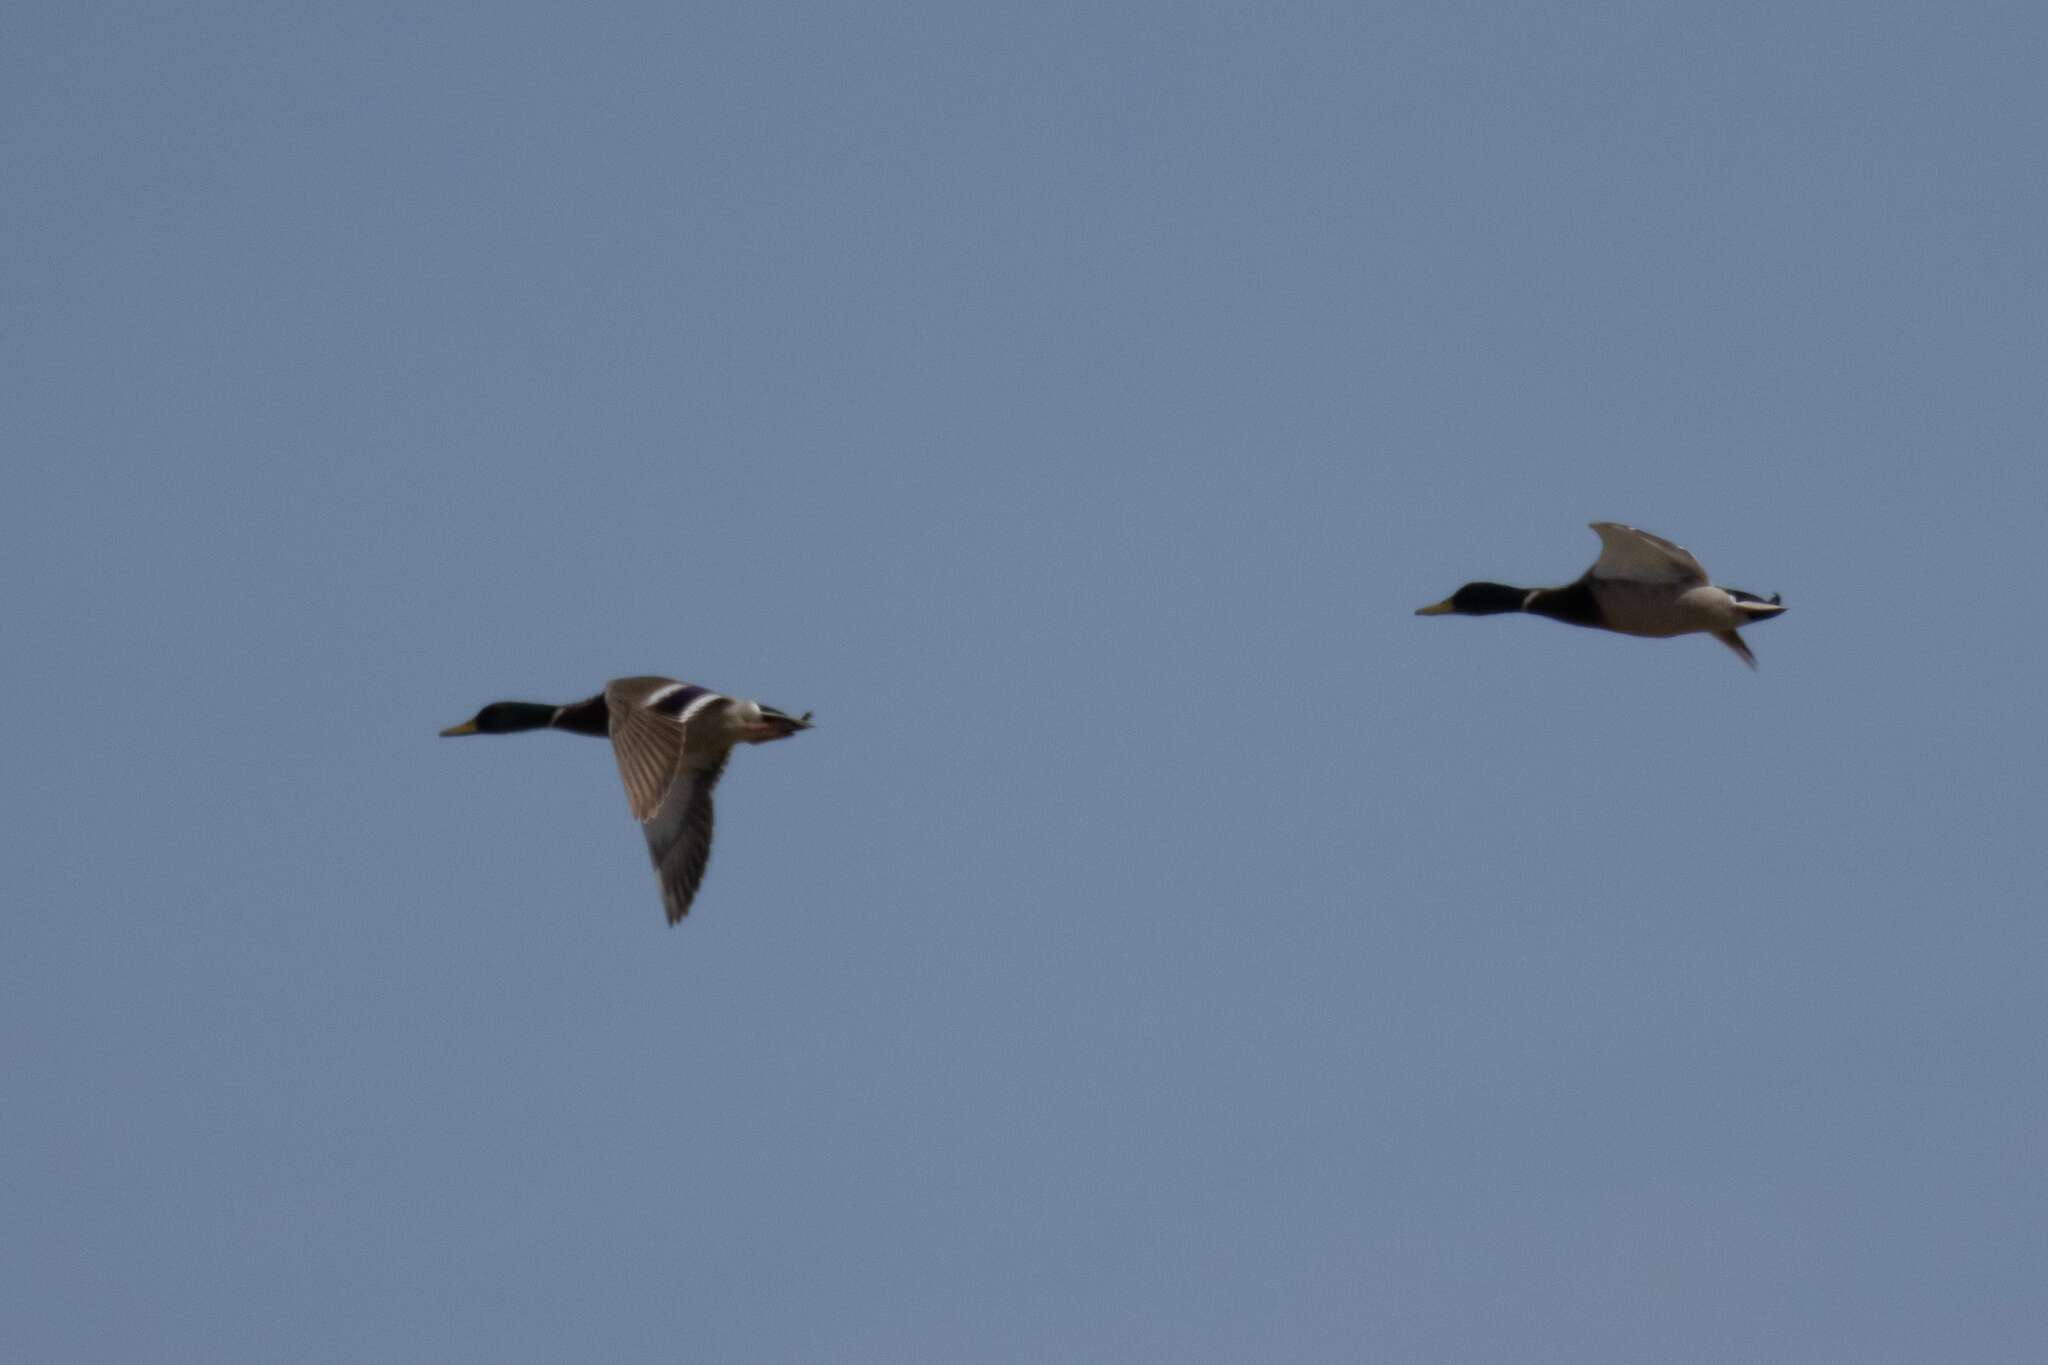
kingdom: Animalia
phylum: Chordata
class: Aves
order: Anseriformes
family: Anatidae
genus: Anas
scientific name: Anas platyrhynchos
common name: Mallard
